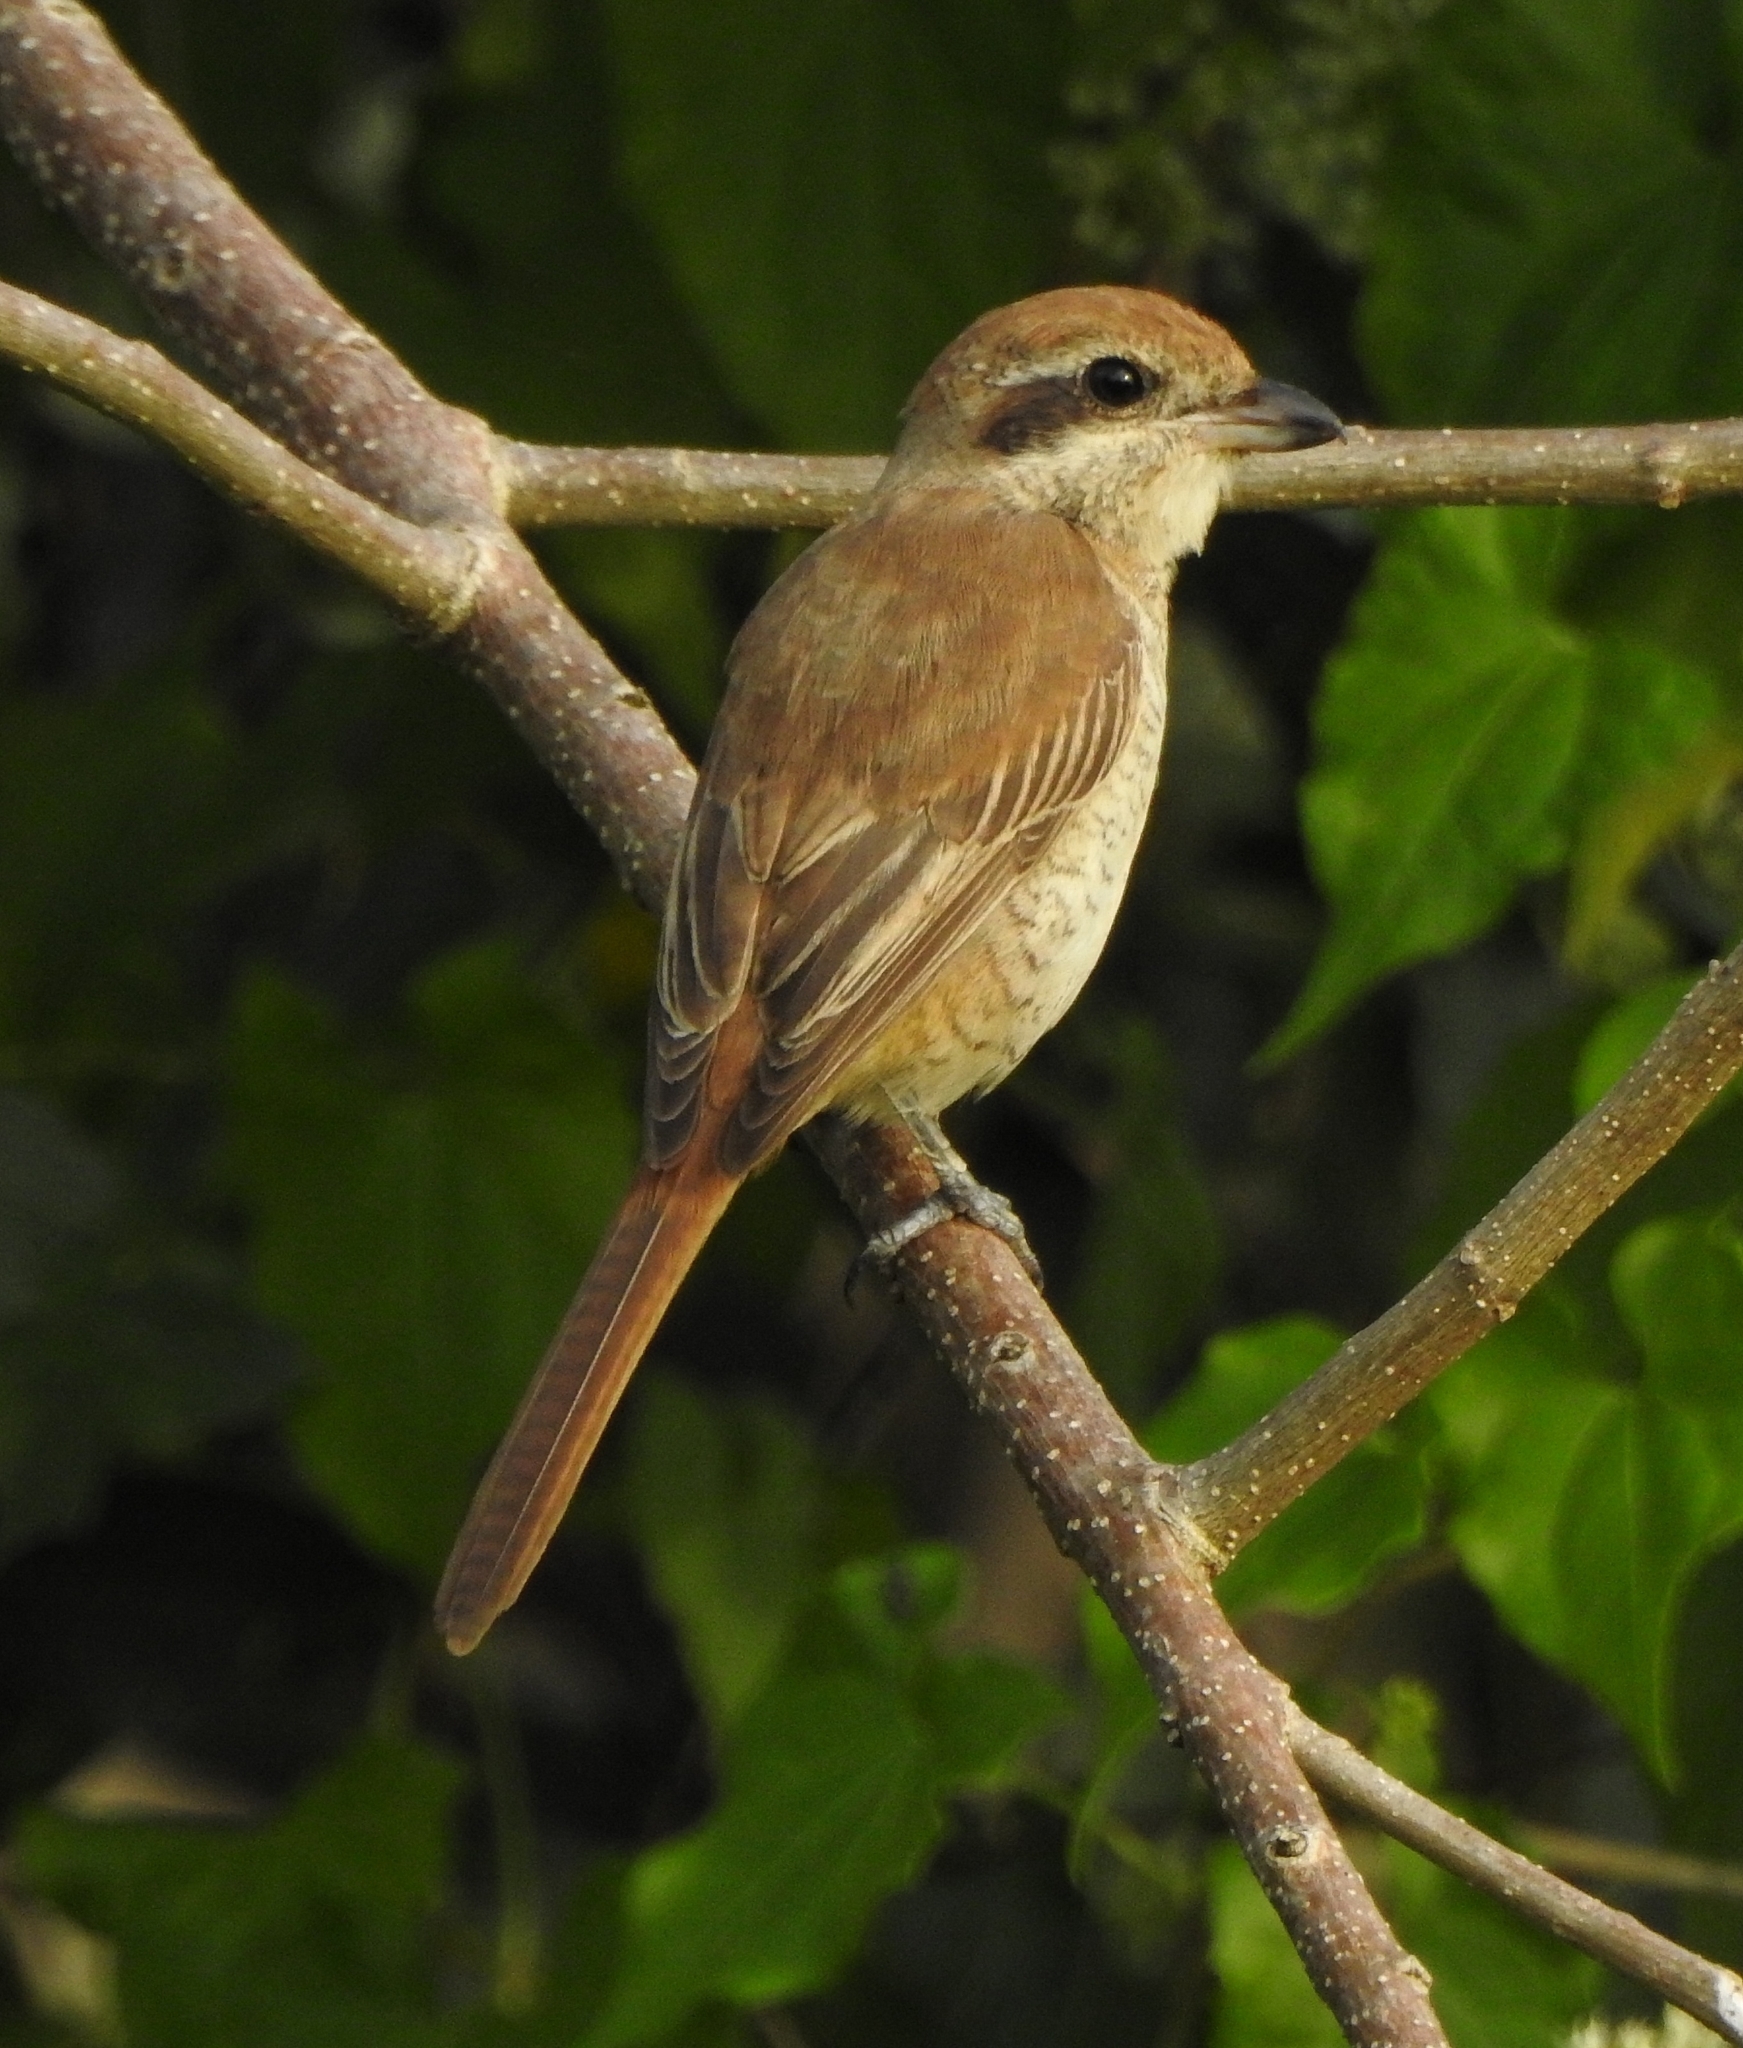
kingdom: Animalia
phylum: Chordata
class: Aves
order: Passeriformes
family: Laniidae
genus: Lanius
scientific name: Lanius cristatus
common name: Brown shrike
